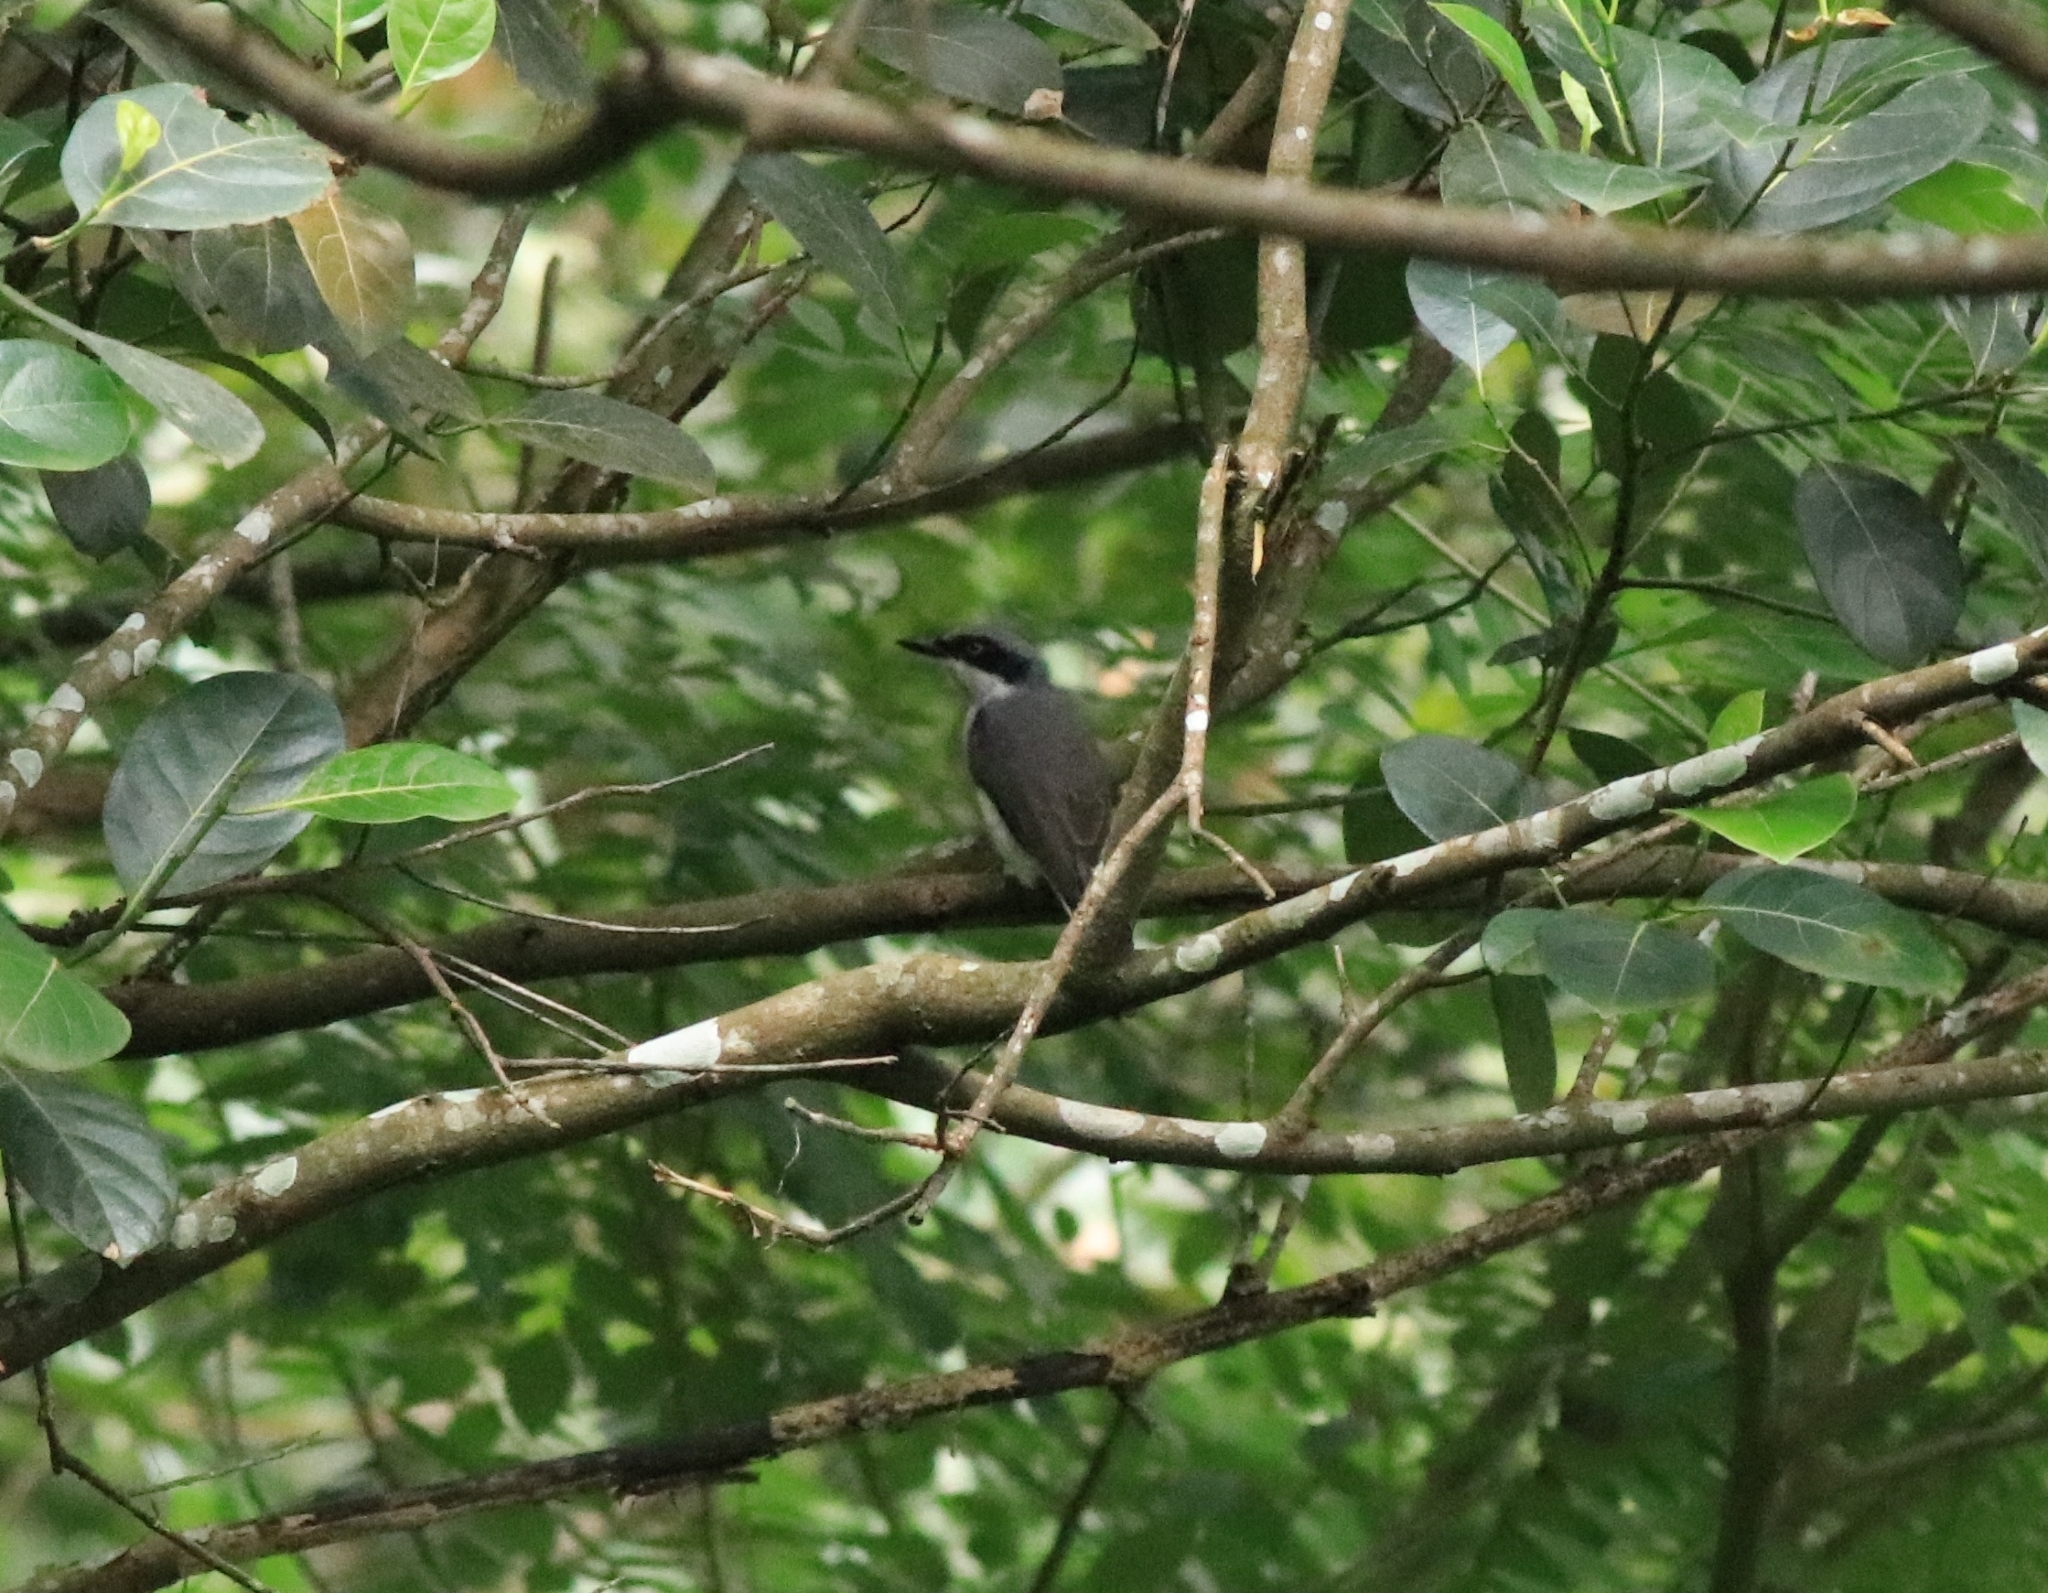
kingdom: Animalia
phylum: Chordata
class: Aves
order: Passeriformes
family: Tephrodornithidae
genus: Tephrodornis
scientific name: Tephrodornis sylvicola
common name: Malabar woodshrike
